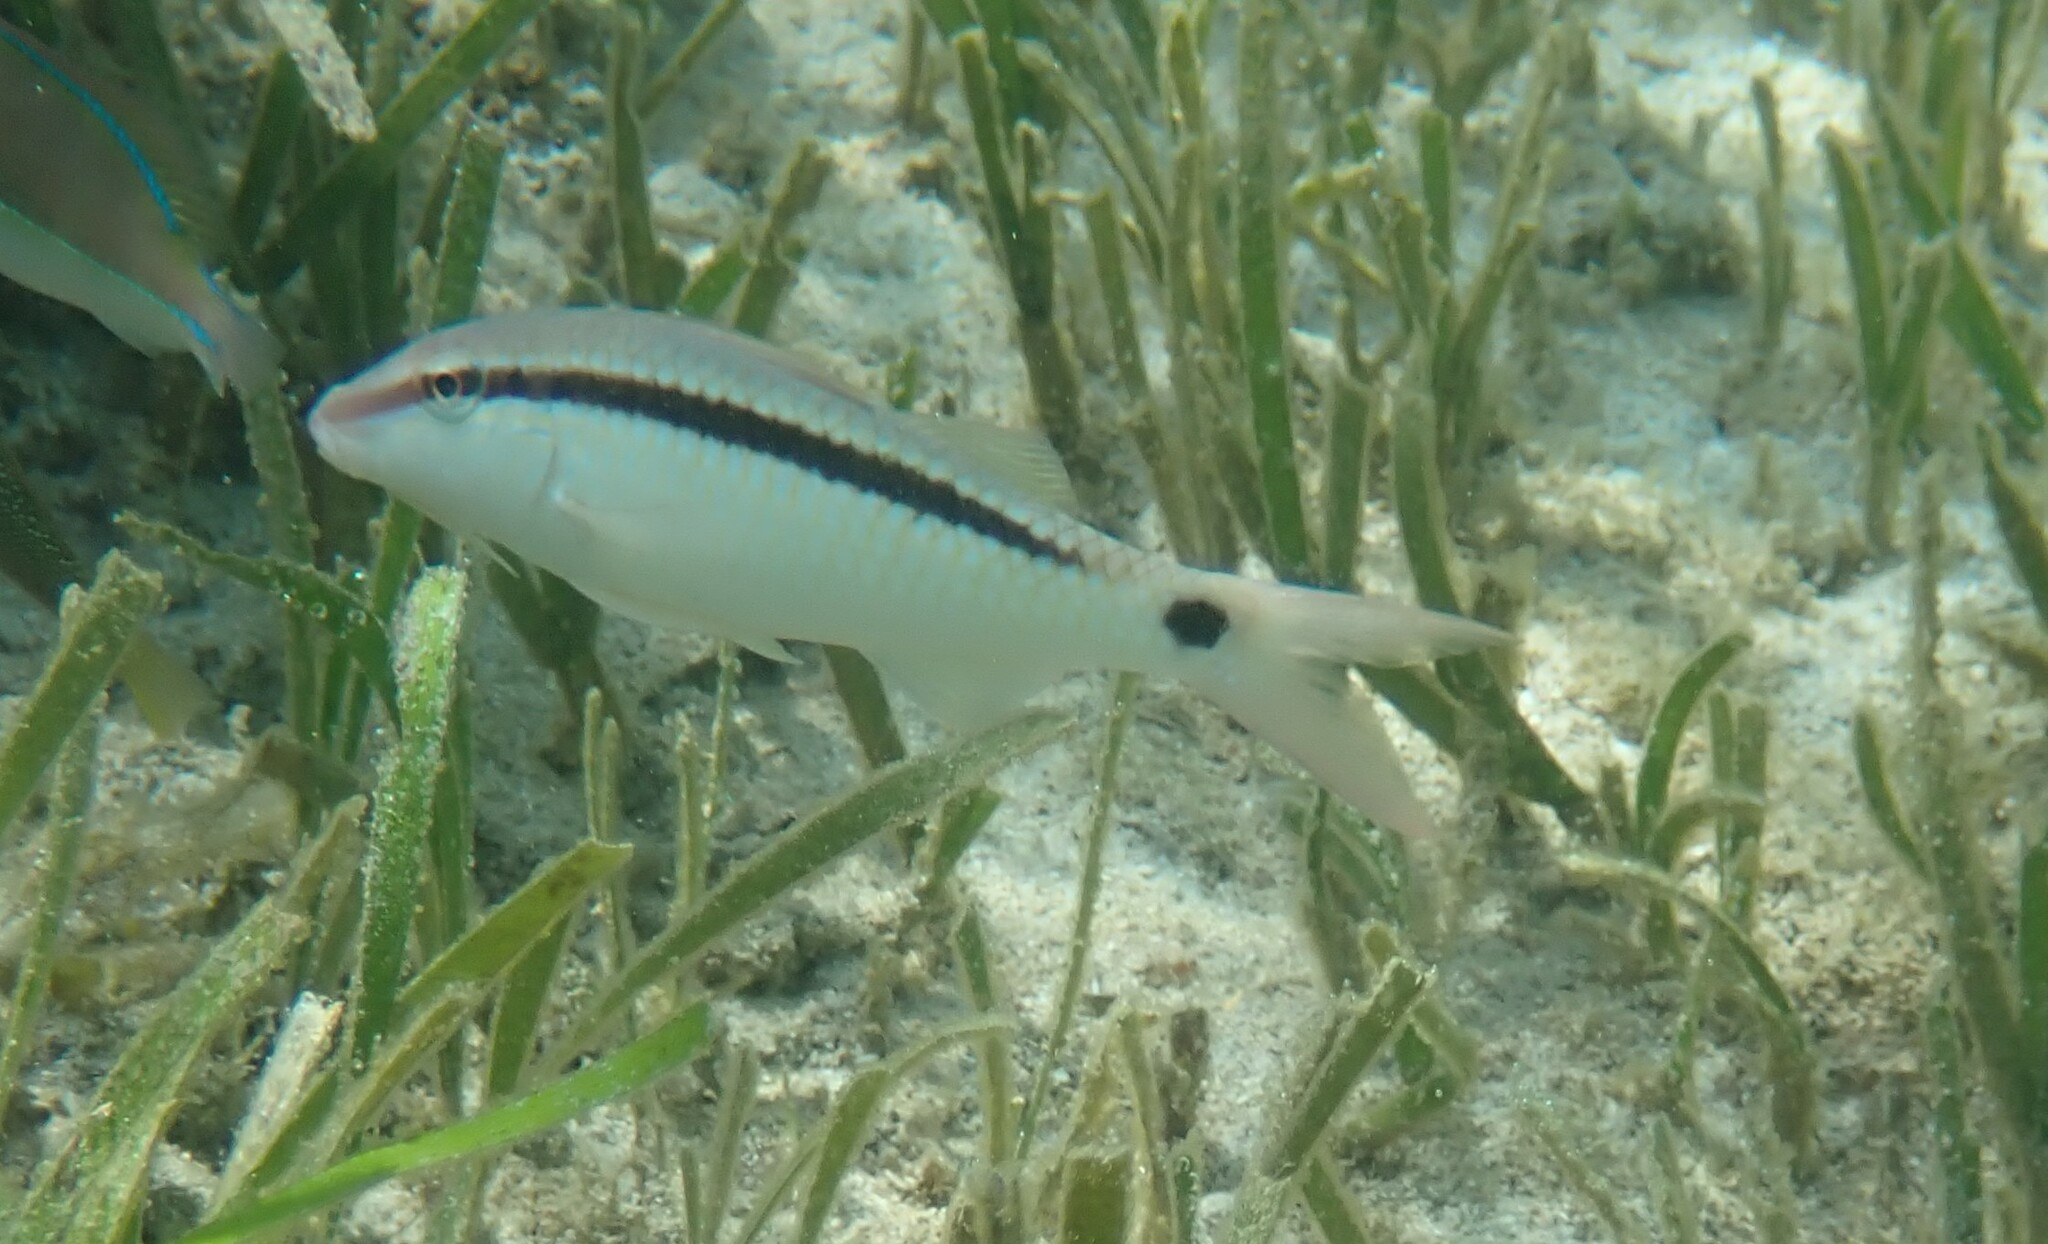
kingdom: Animalia
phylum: Chordata
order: Perciformes
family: Mullidae
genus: Parupeneus
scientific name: Parupeneus barberinus
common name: Dash-and-dot goatfish
